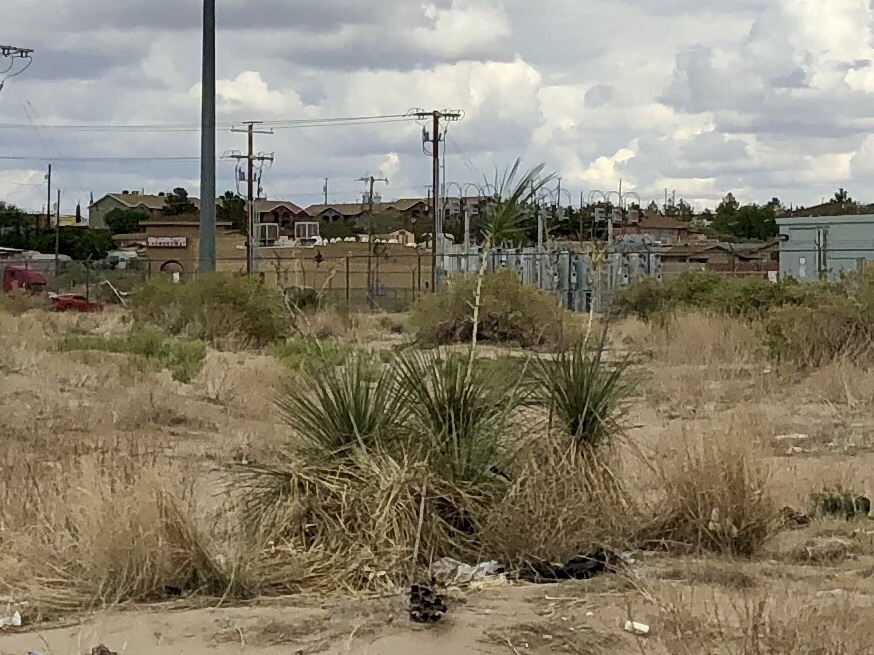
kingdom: Plantae
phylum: Tracheophyta
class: Liliopsida
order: Asparagales
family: Asparagaceae
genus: Yucca
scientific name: Yucca elata
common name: Palmella
